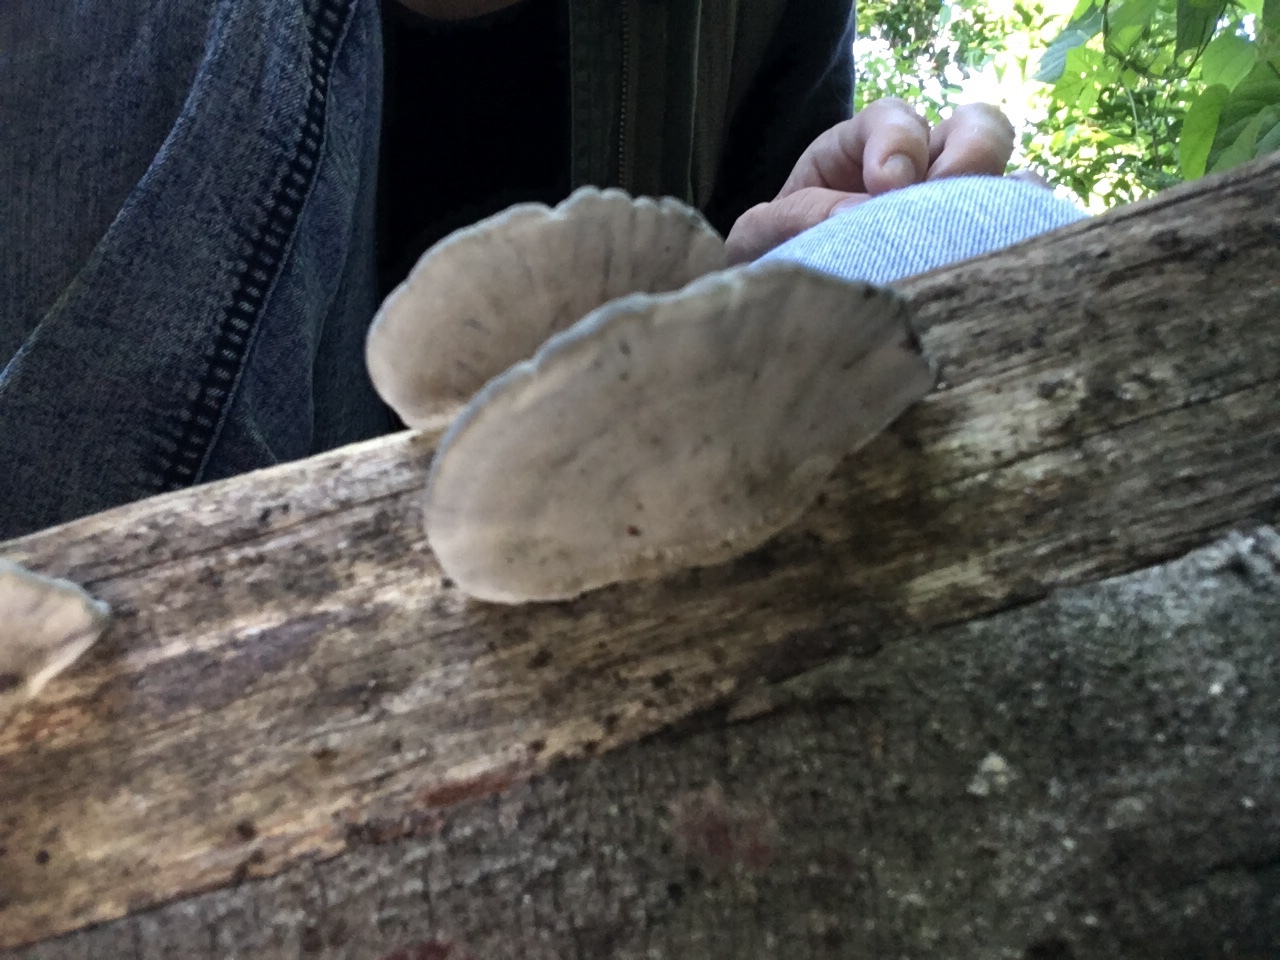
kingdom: Fungi
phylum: Basidiomycota
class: Agaricomycetes
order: Polyporales
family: Cerrenaceae
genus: Cerrena
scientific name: Cerrena hydnoides
